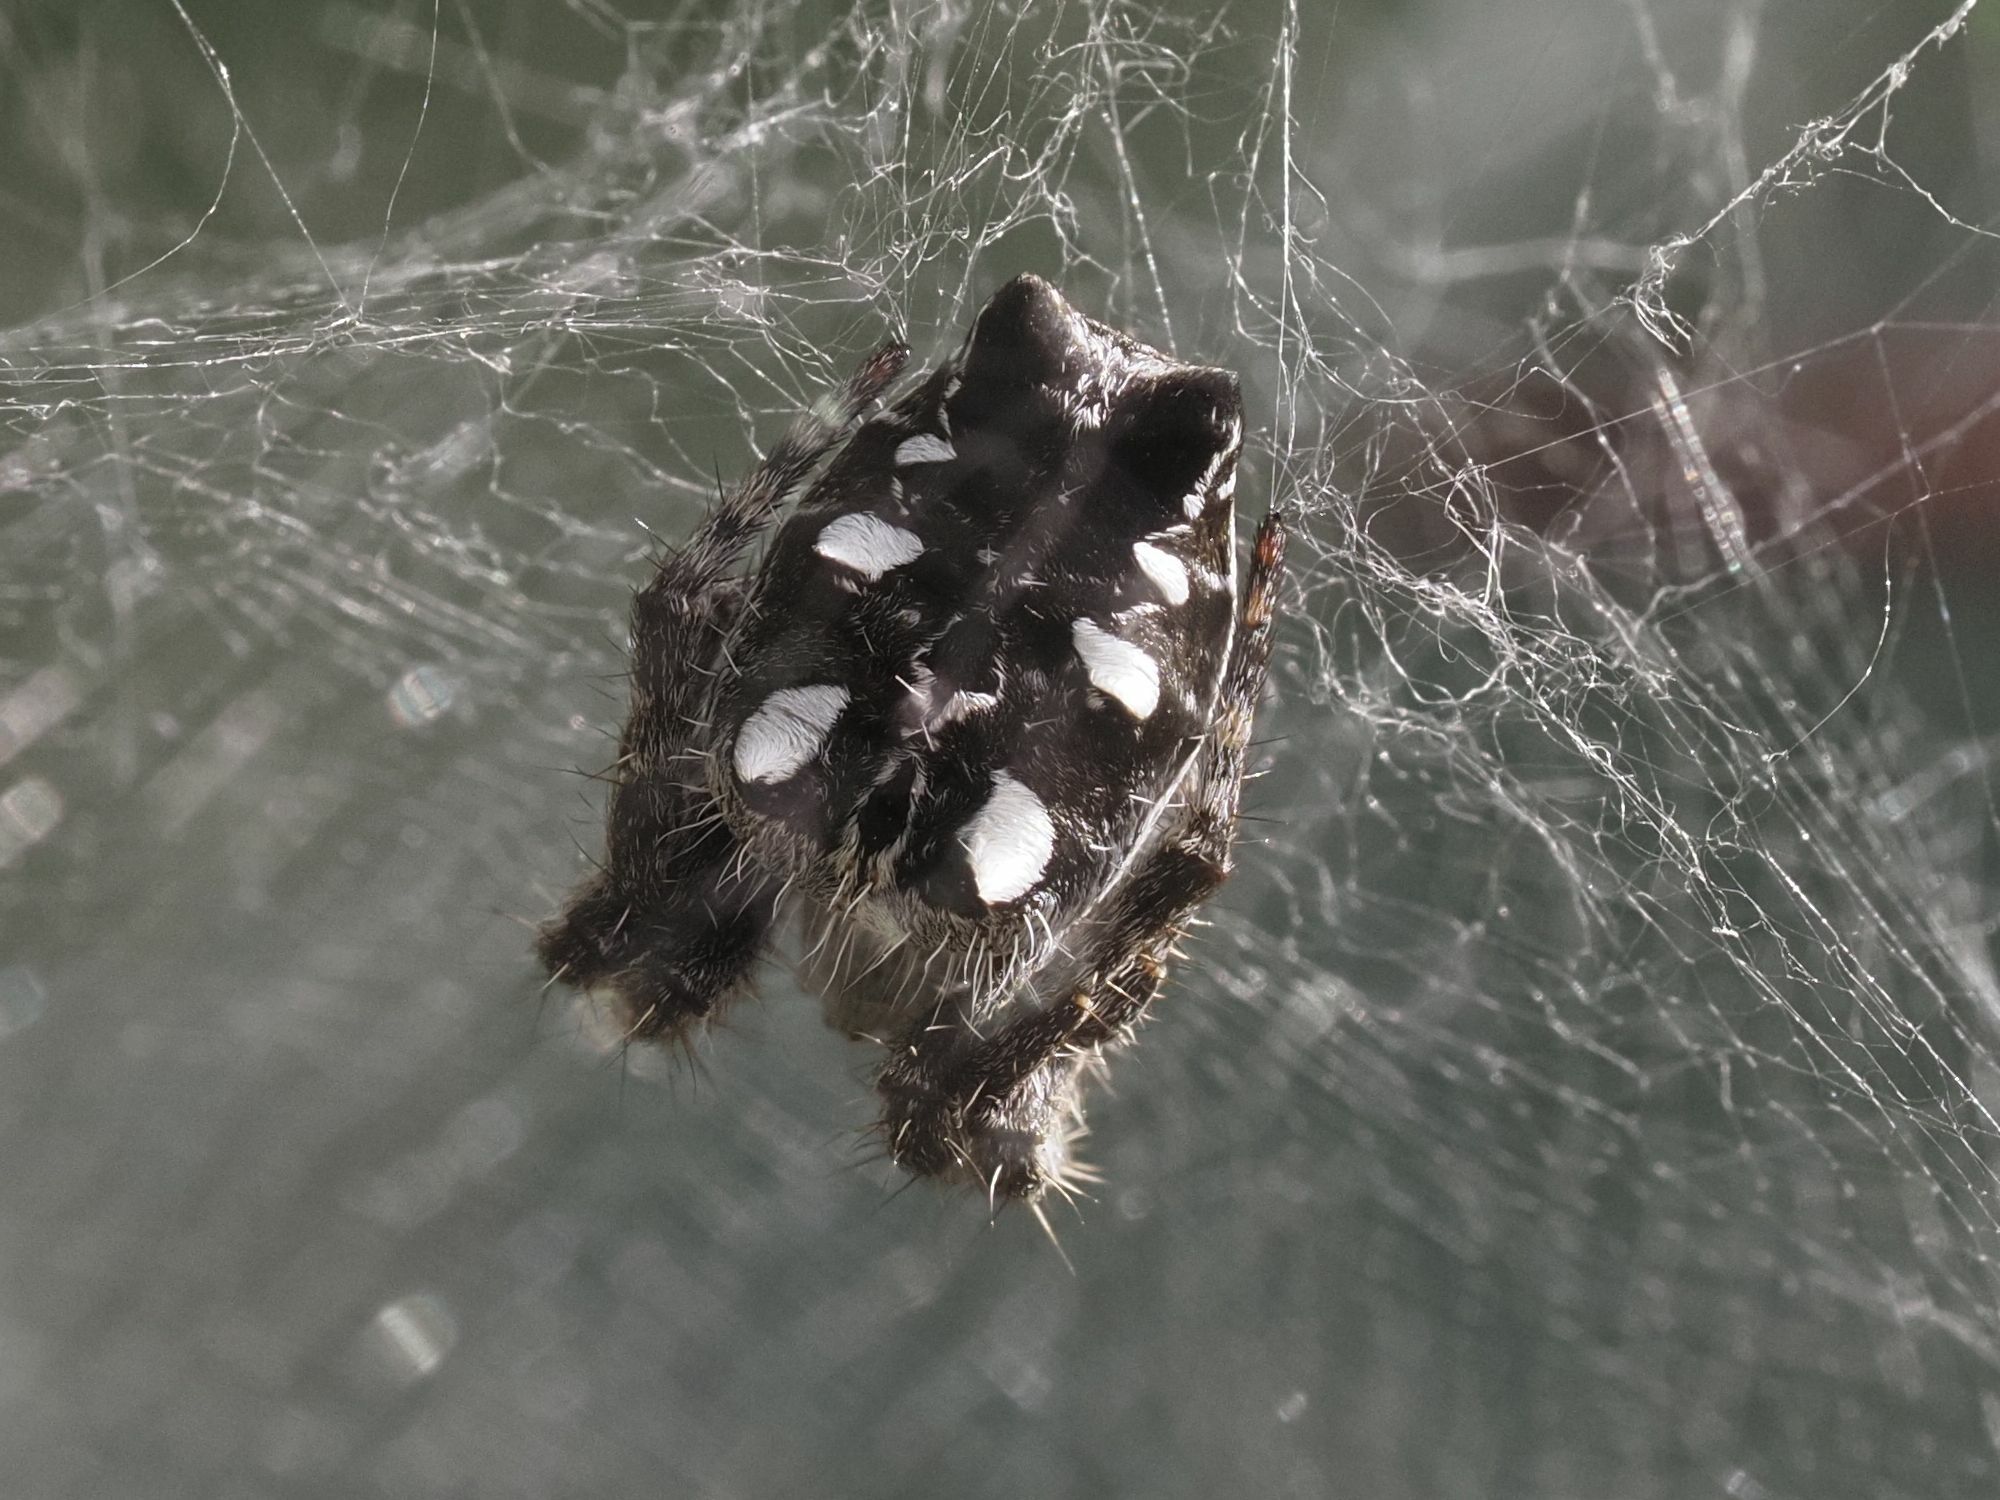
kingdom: Animalia
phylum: Arthropoda
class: Arachnida
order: Araneae
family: Araneidae
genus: Cyrtophora
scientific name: Cyrtophora citricola
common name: Orb weavers
